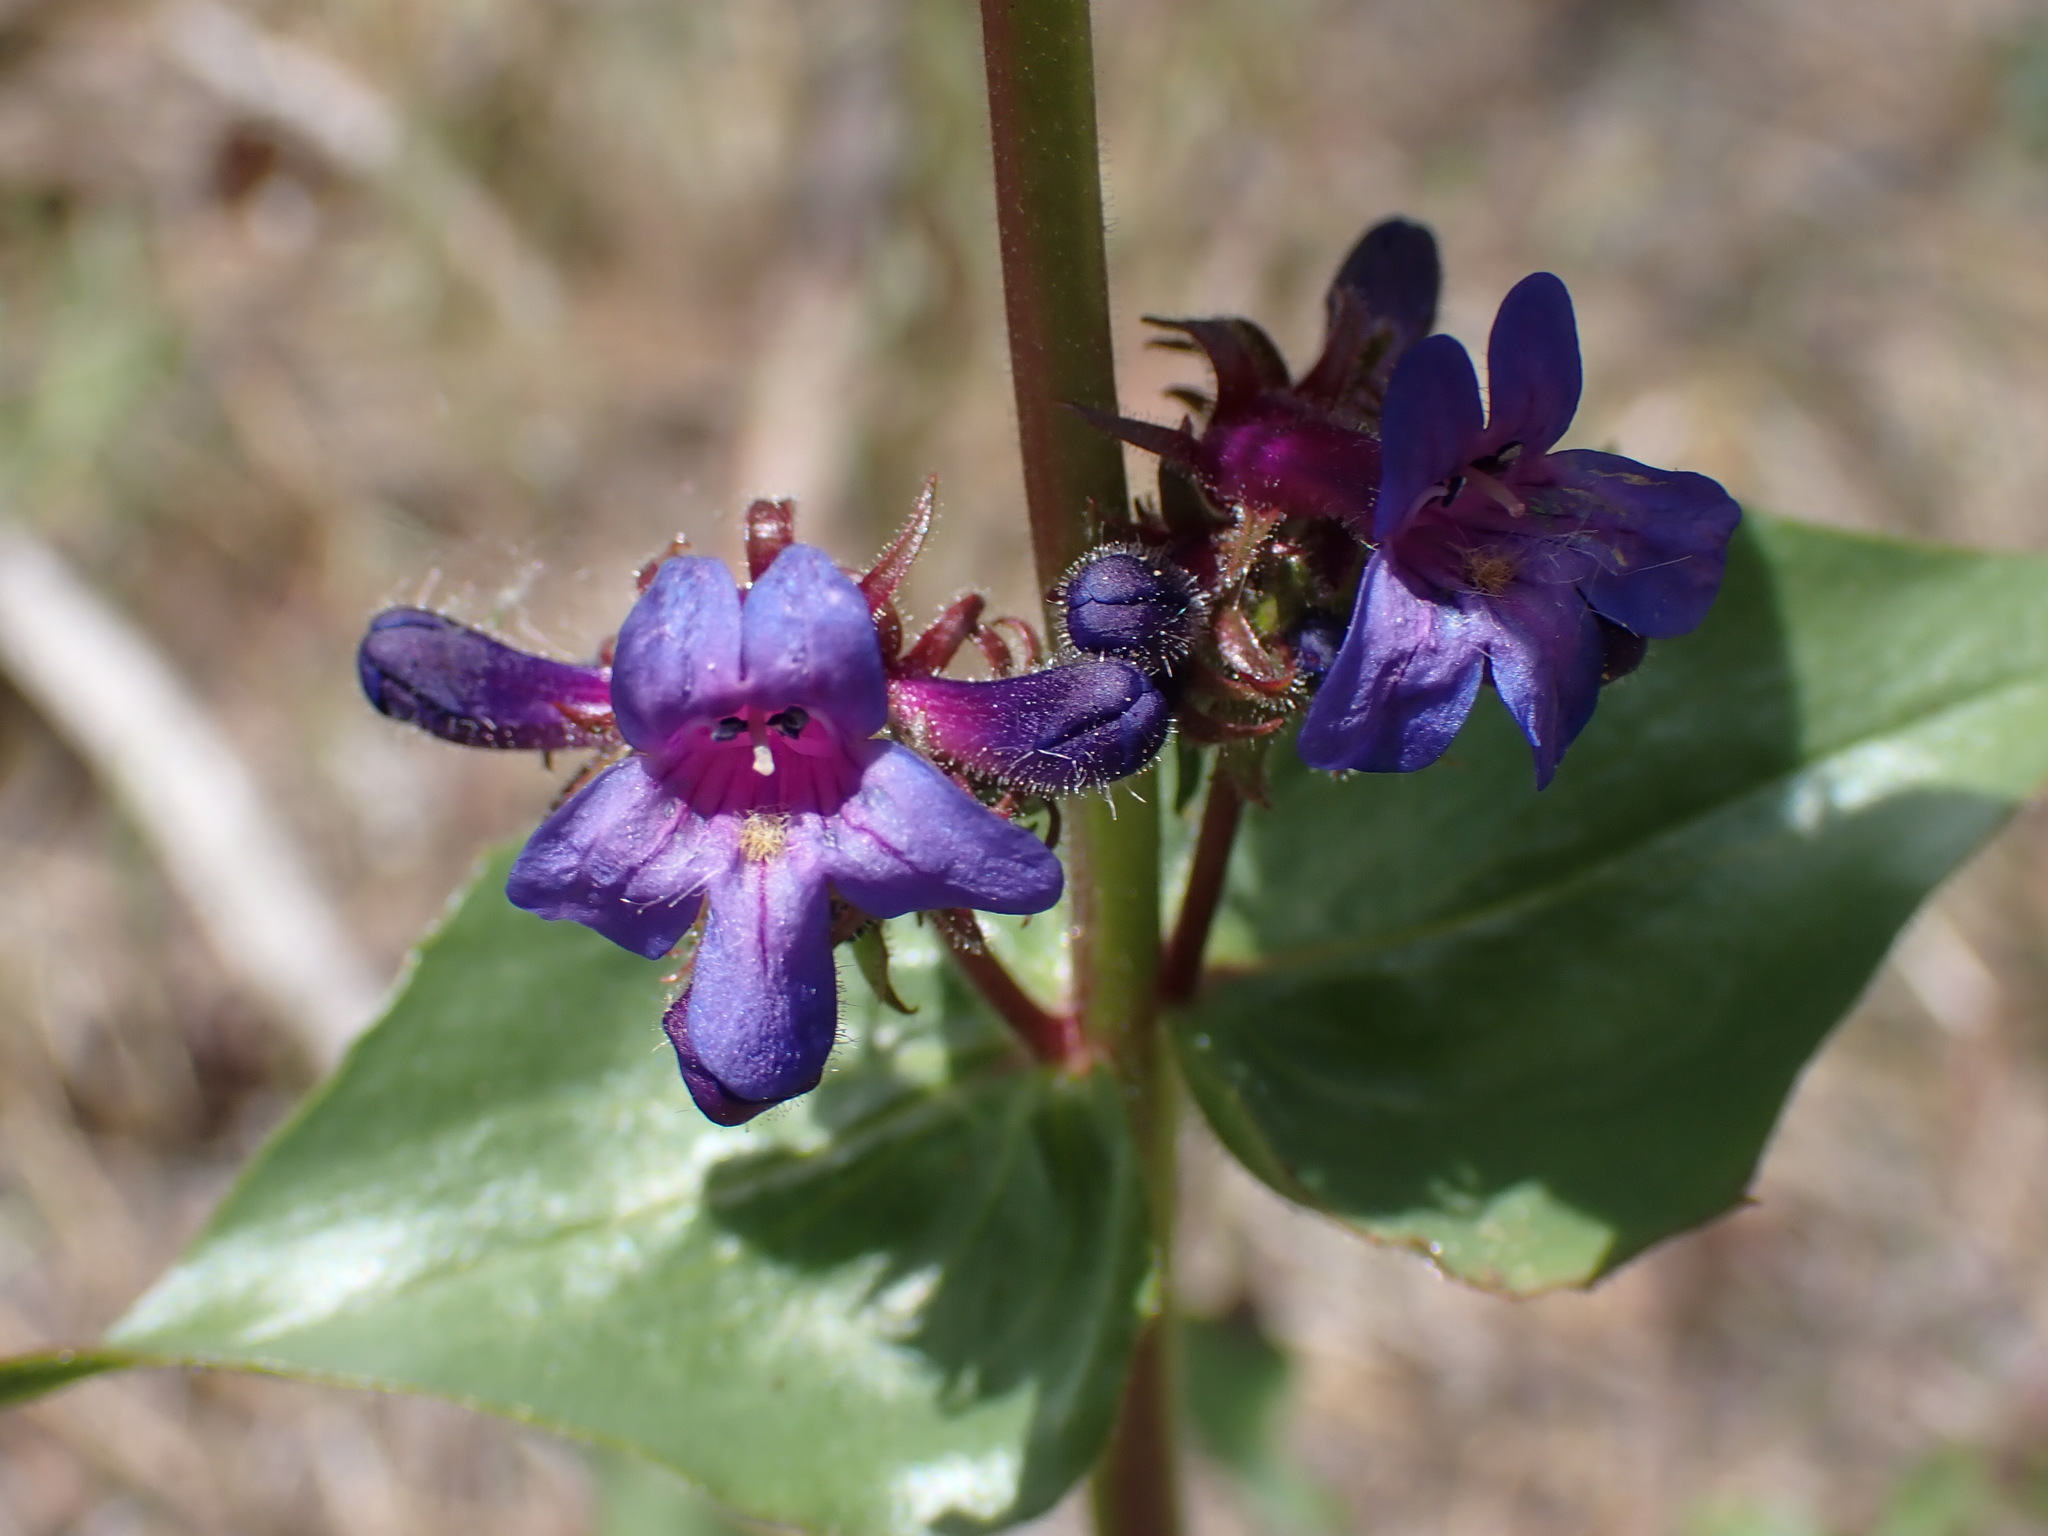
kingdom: Plantae
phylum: Tracheophyta
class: Magnoliopsida
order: Lamiales
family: Plantaginaceae
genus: Penstemon
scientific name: Penstemon pruinosus
